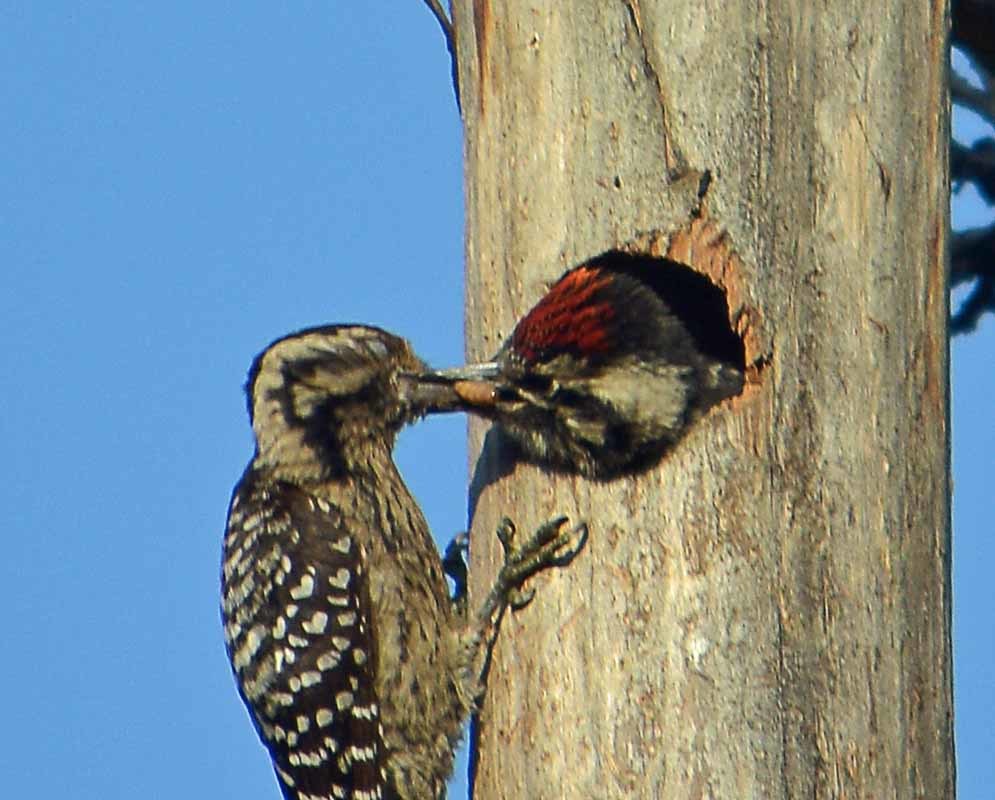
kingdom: Animalia
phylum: Chordata
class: Aves
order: Piciformes
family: Picidae
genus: Dryobates
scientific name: Dryobates scalaris
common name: Ladder-backed woodpecker
